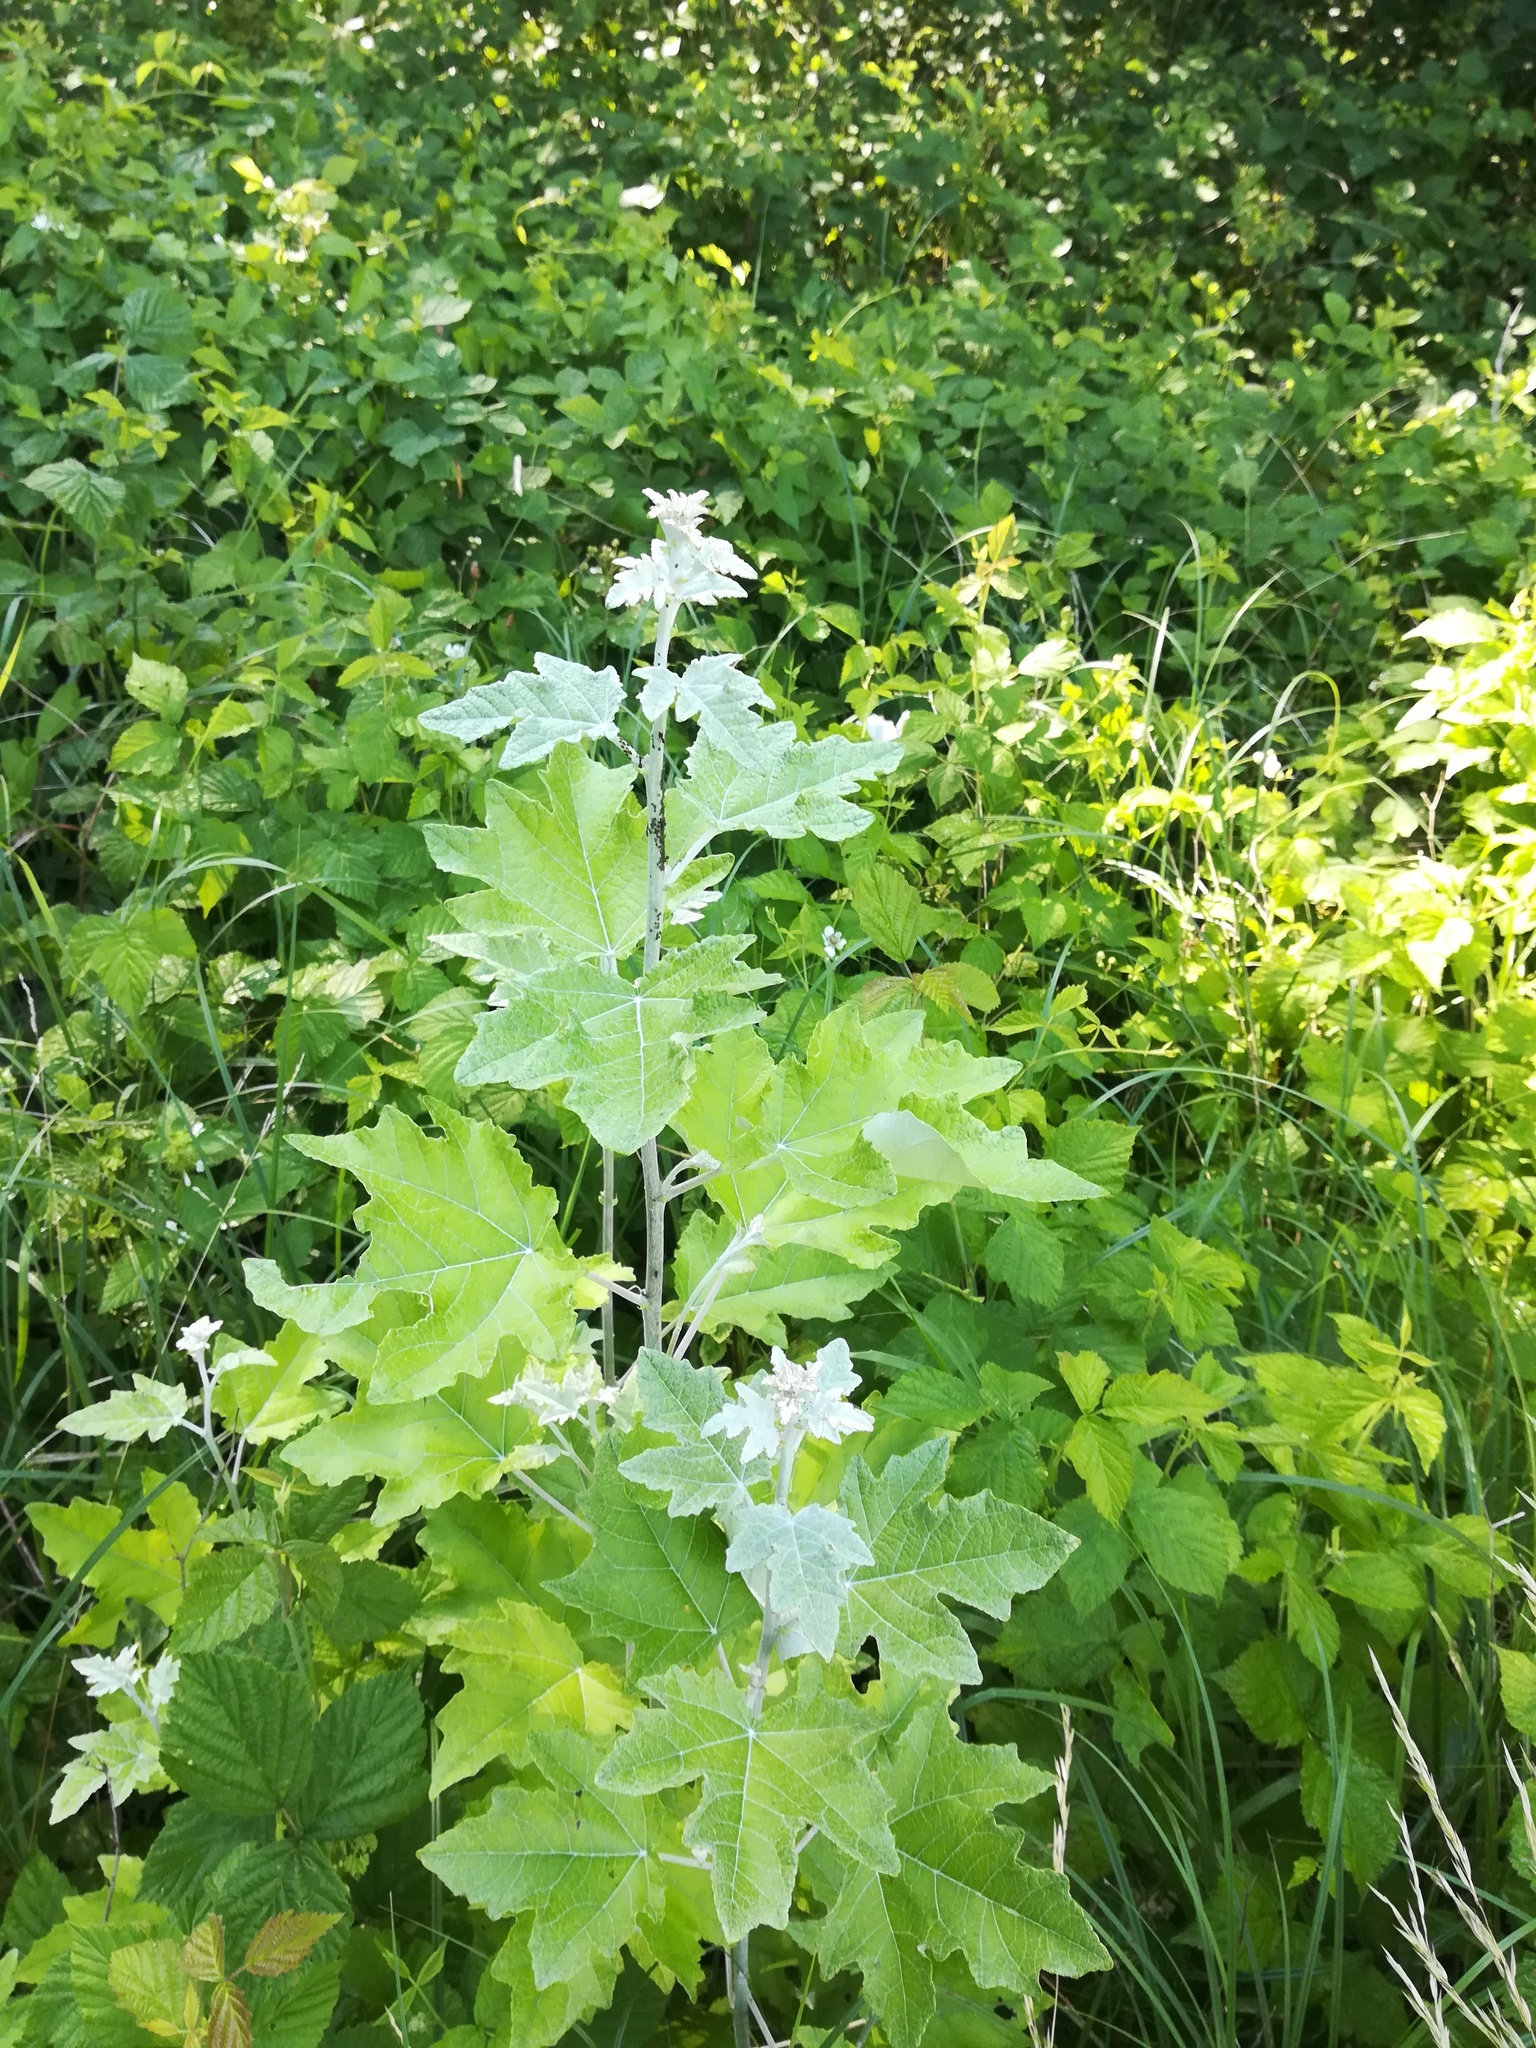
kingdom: Plantae
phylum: Tracheophyta
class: Magnoliopsida
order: Malpighiales
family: Salicaceae
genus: Populus
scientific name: Populus alba
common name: White poplar
